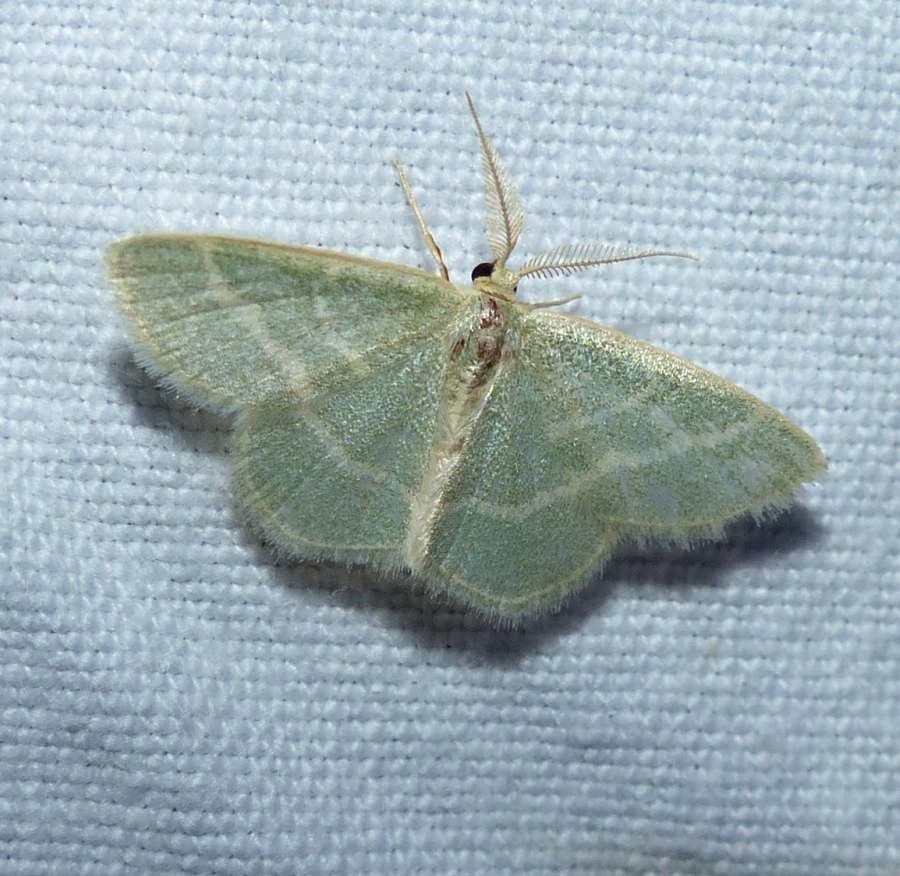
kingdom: Animalia
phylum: Arthropoda
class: Insecta
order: Lepidoptera
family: Geometridae
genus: Chlorochlamys
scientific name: Chlorochlamys chloroleucaria
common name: Blackberry looper
